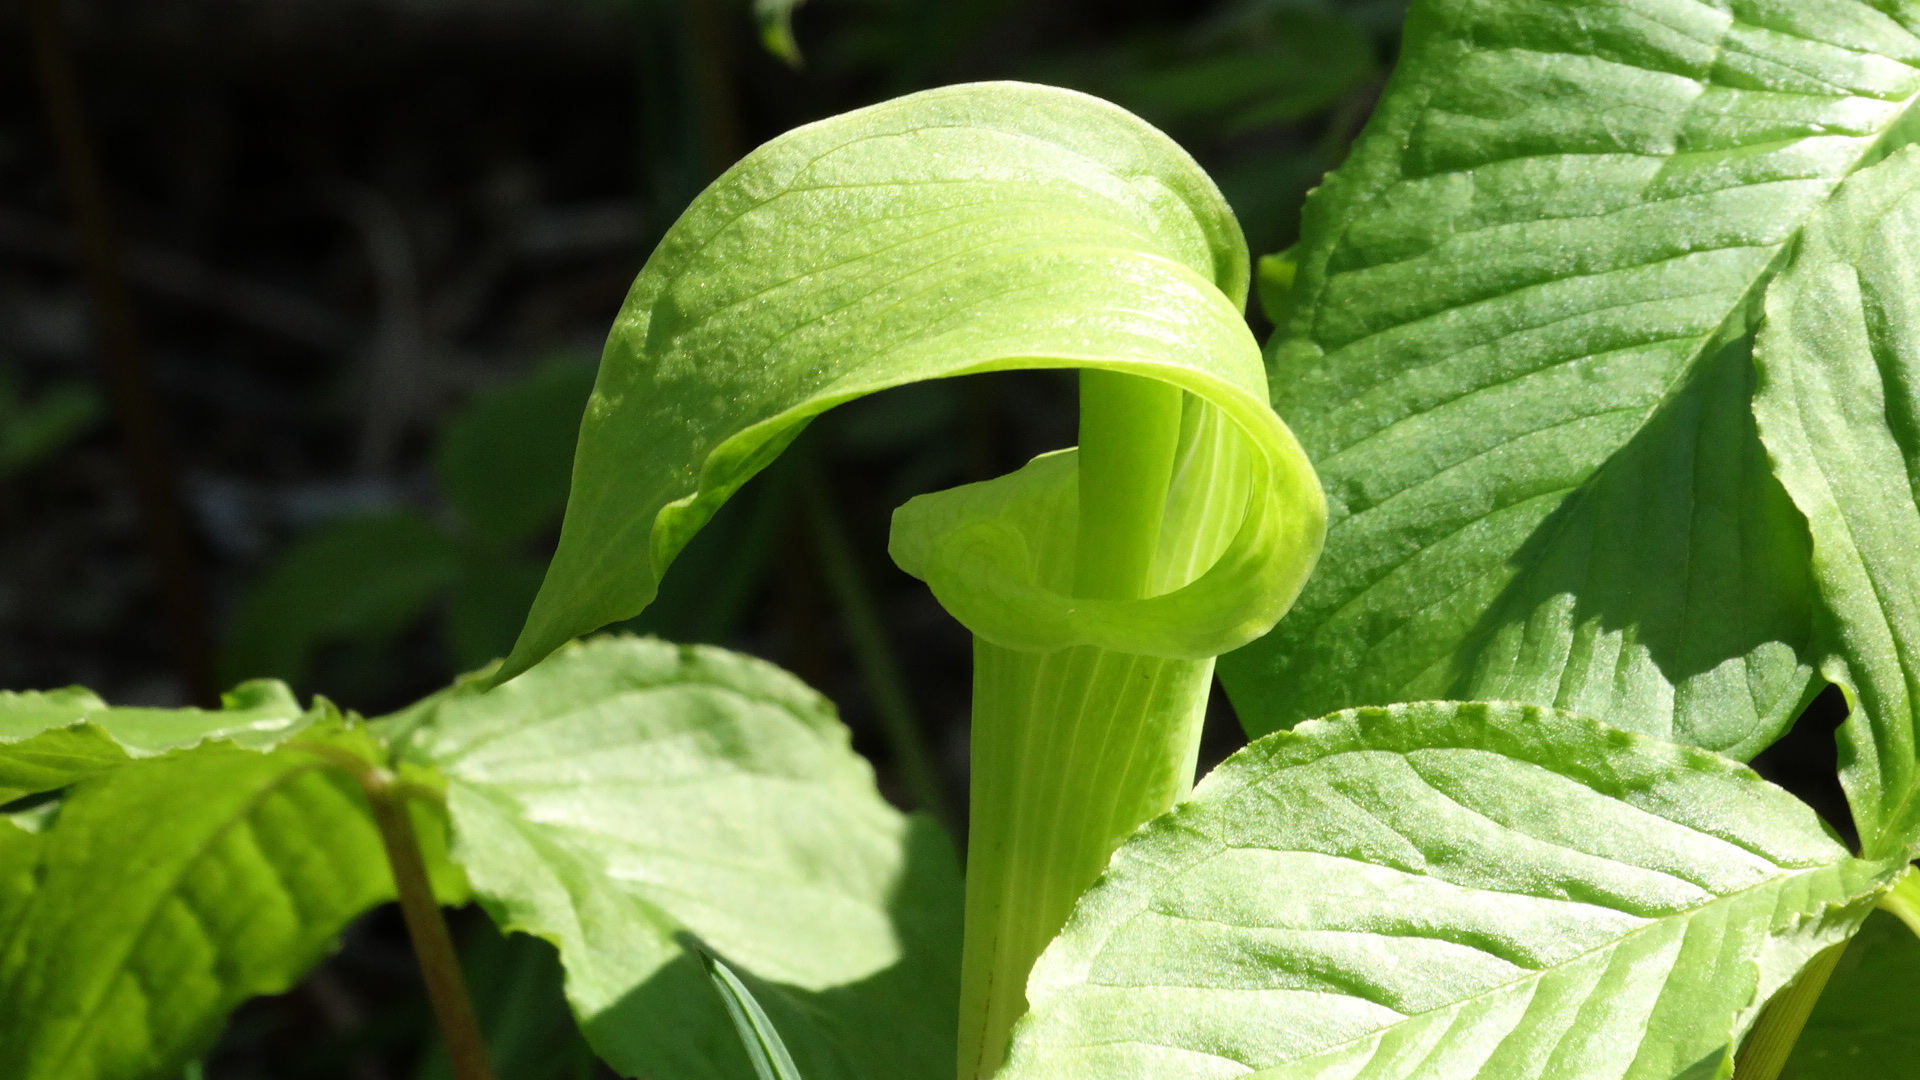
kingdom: Plantae
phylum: Tracheophyta
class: Liliopsida
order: Alismatales
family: Araceae
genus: Arisaema
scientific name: Arisaema triphyllum
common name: Jack-in-the-pulpit
